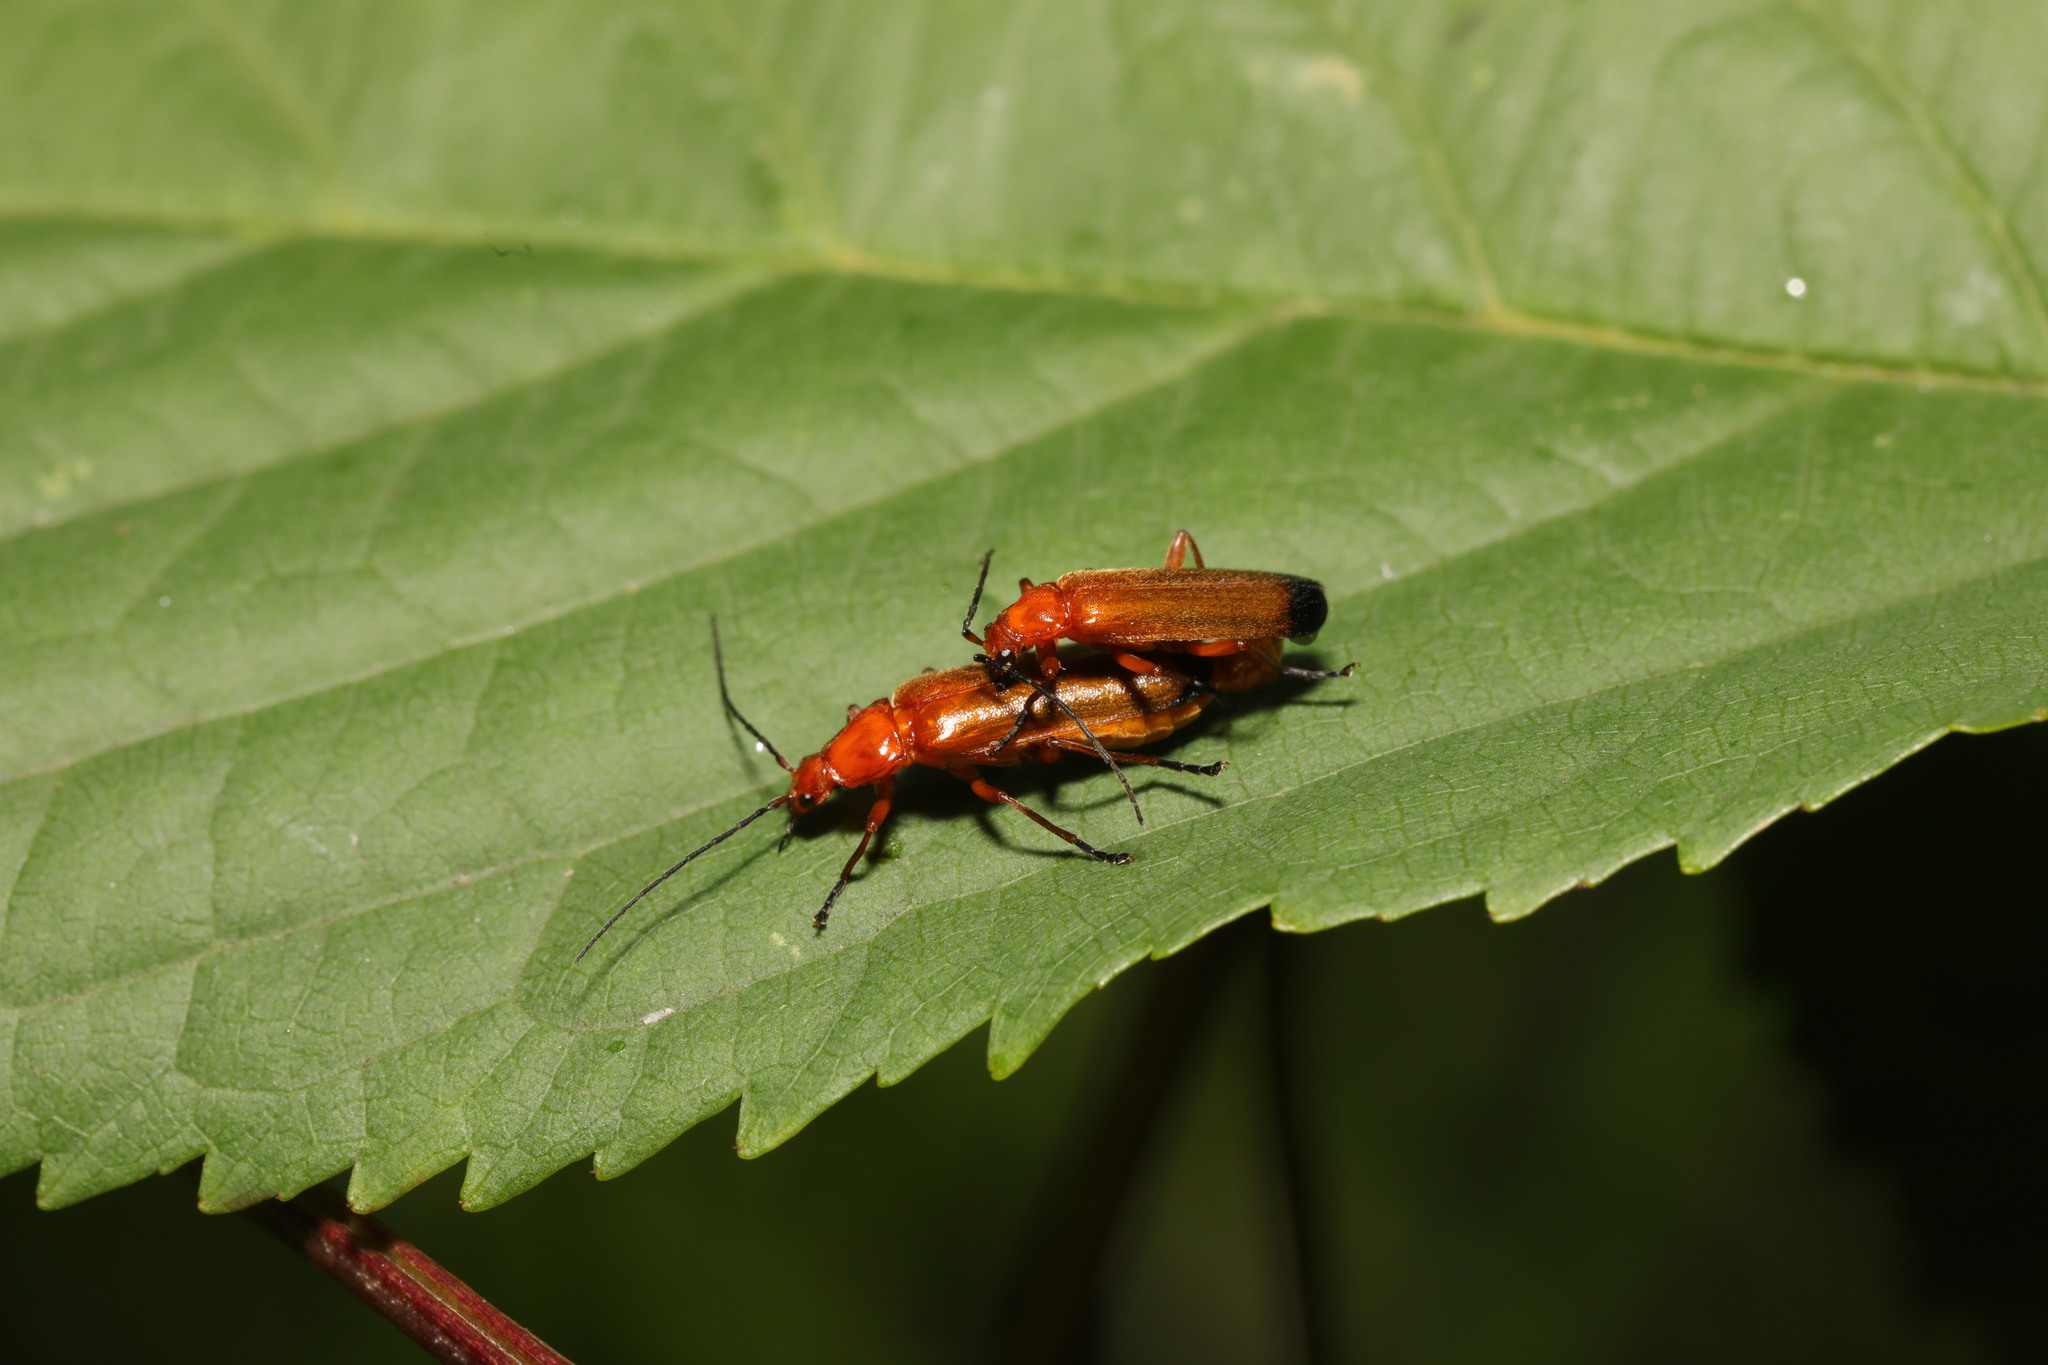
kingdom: Animalia
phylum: Arthropoda
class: Insecta
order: Coleoptera
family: Cantharidae
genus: Rhagonycha
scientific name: Rhagonycha fulva
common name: Common red soldier beetle
